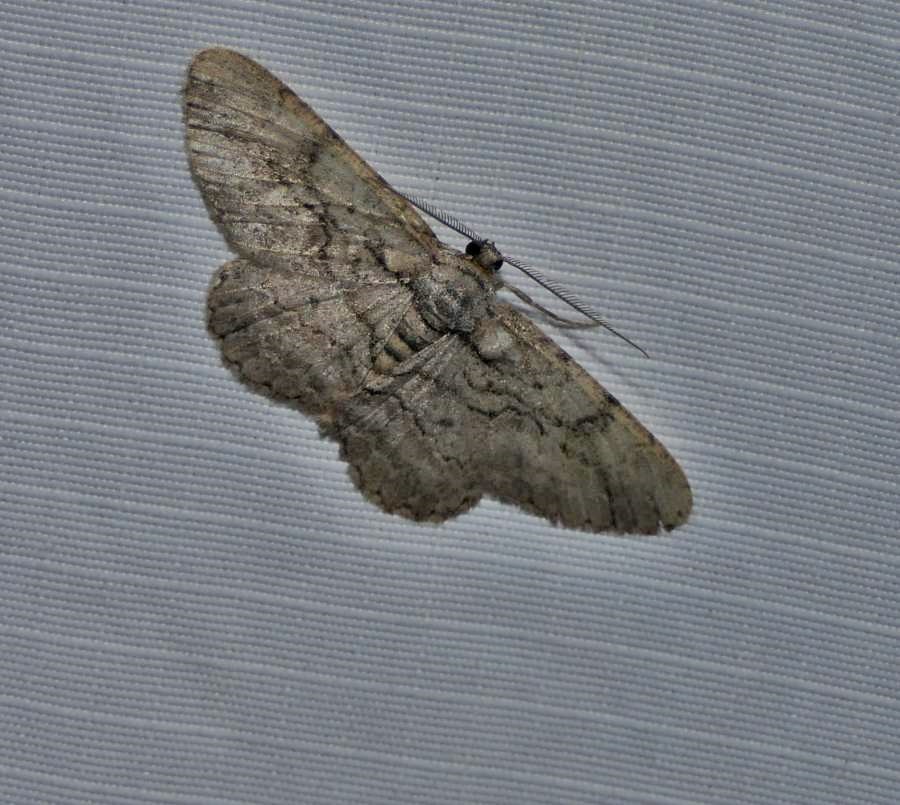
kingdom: Animalia
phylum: Arthropoda
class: Insecta
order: Lepidoptera
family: Geometridae
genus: Anavitrinella
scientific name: Anavitrinella pampinaria
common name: Common gray
